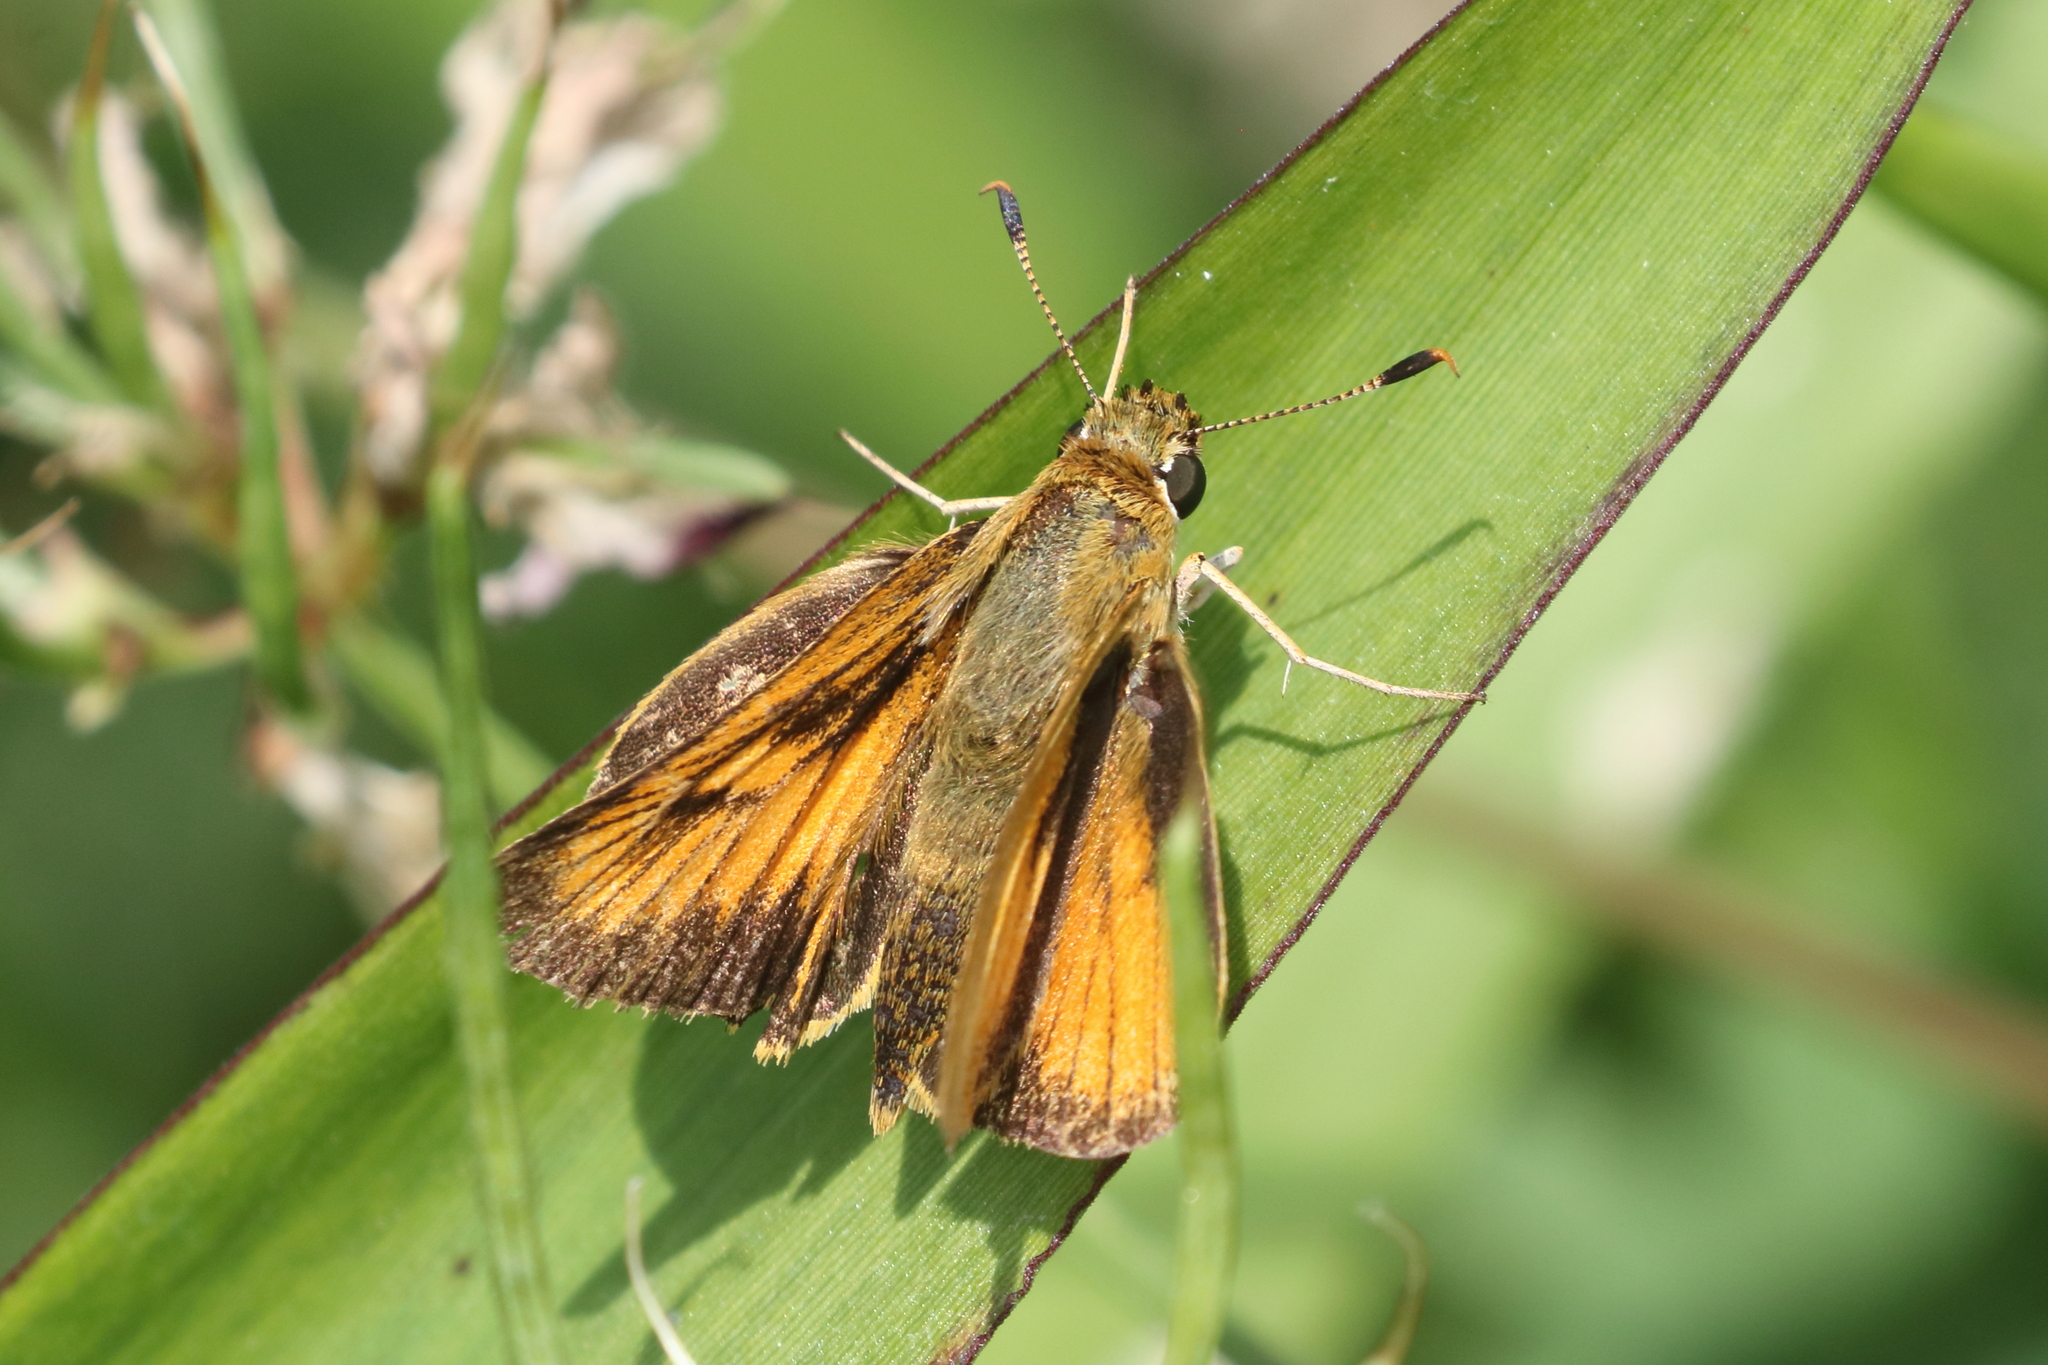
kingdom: Animalia
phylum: Arthropoda
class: Insecta
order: Lepidoptera
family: Hesperiidae
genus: Atrytone
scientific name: Atrytone delaware
